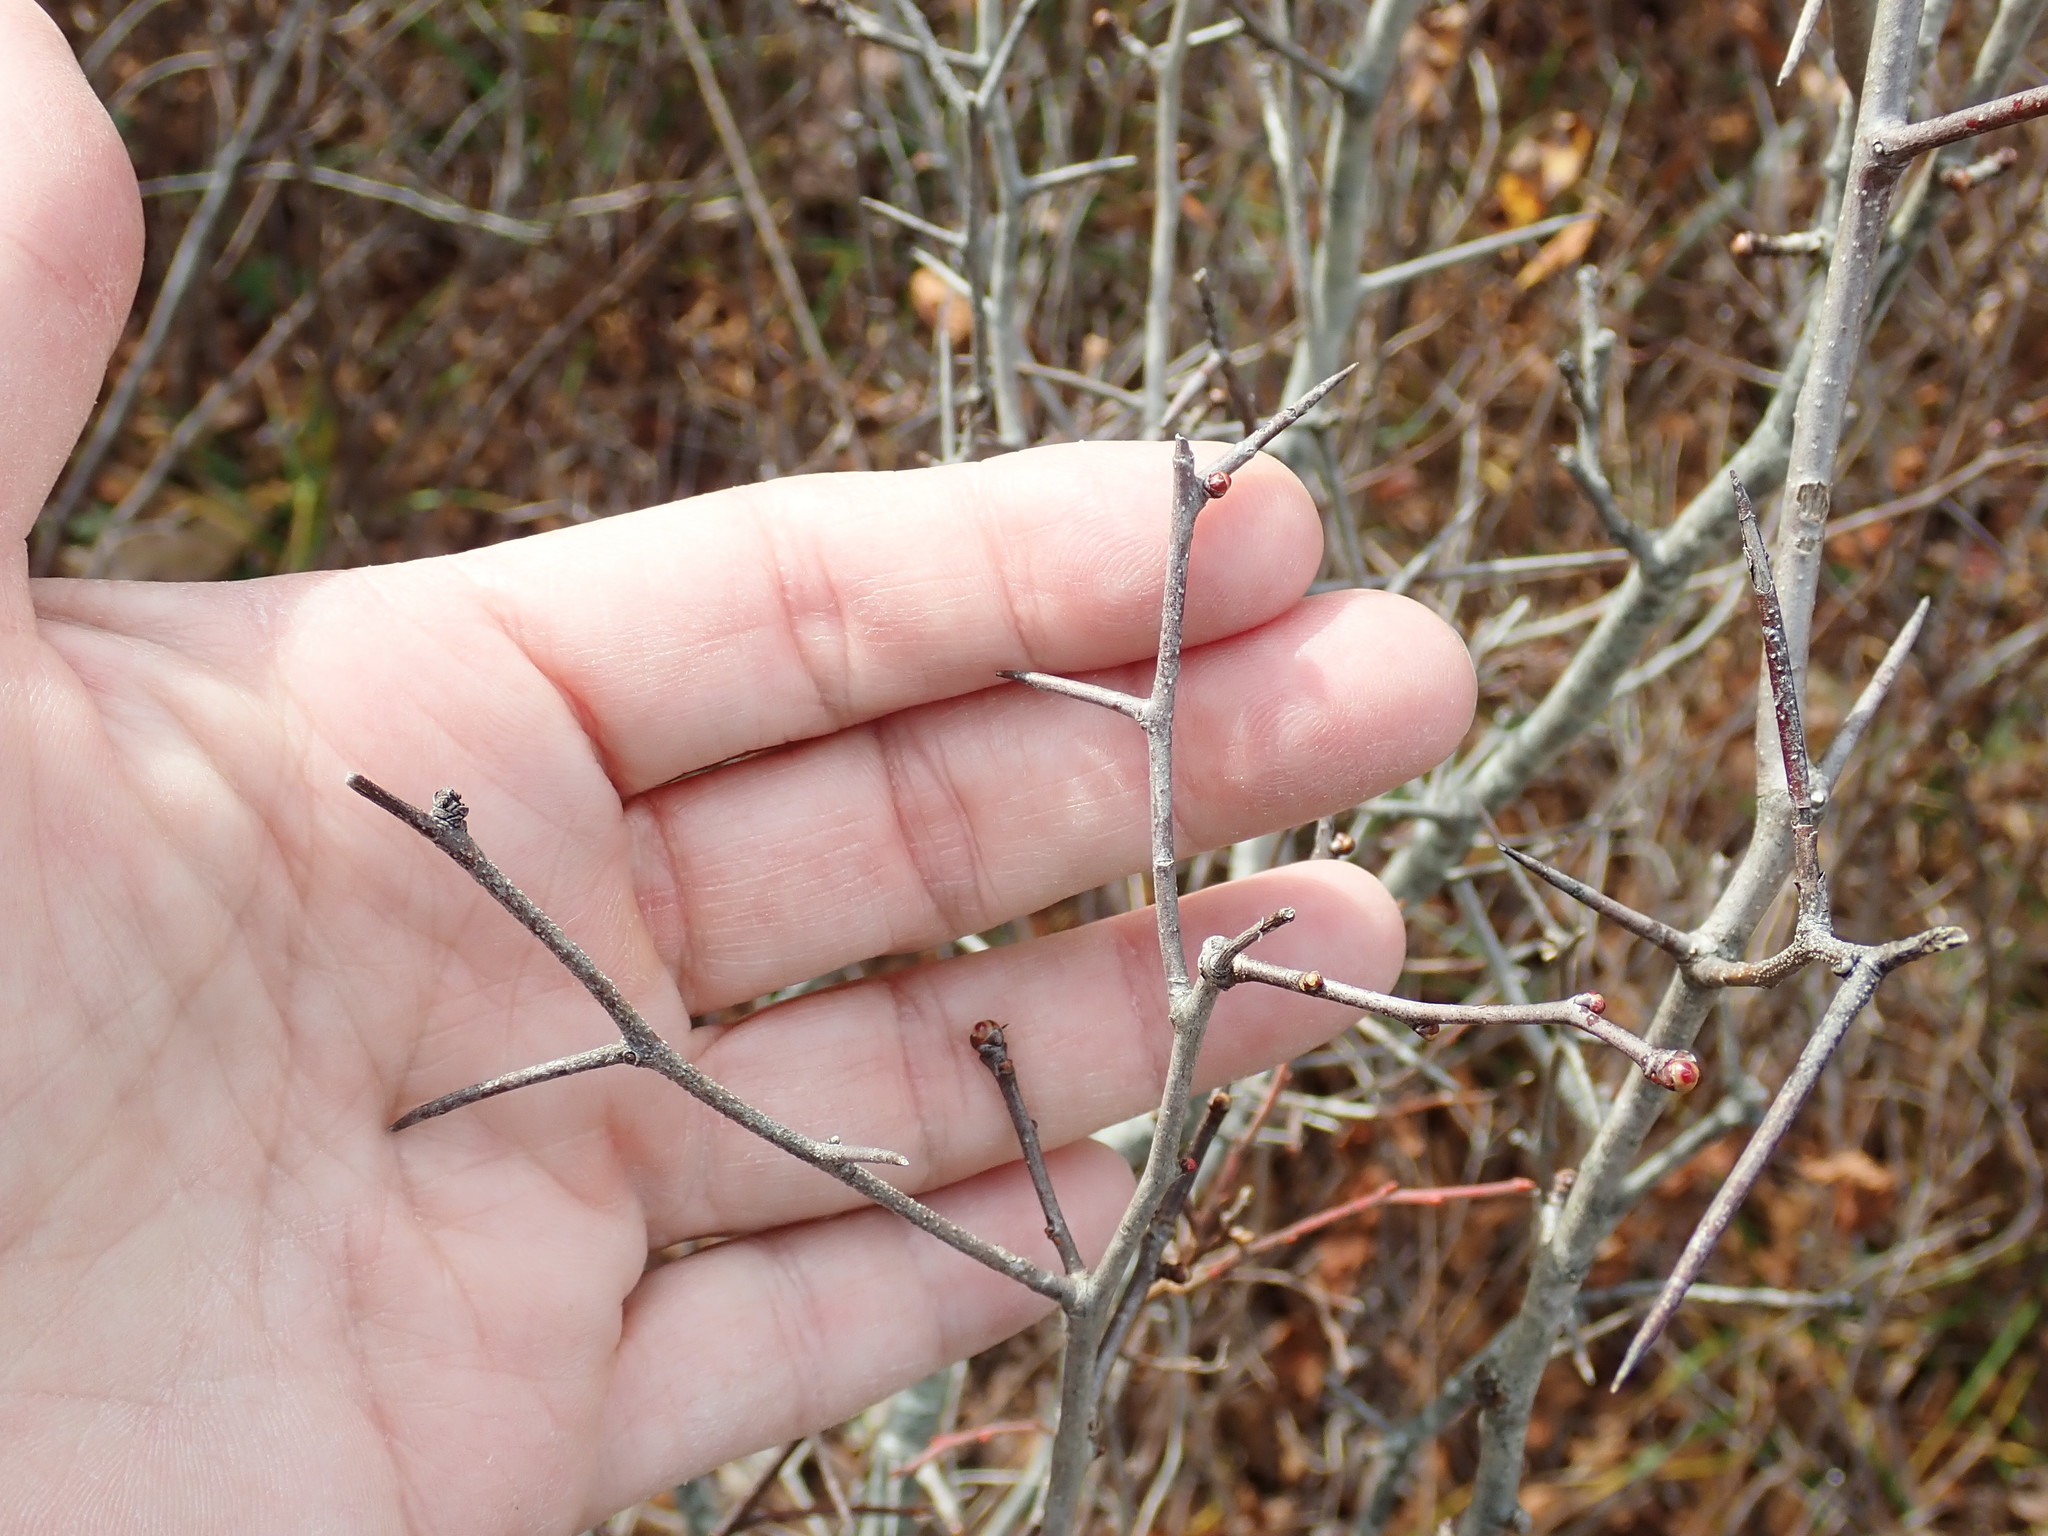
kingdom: Plantae
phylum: Tracheophyta
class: Magnoliopsida
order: Rosales
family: Rosaceae
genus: Crataegus
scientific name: Crataegus
